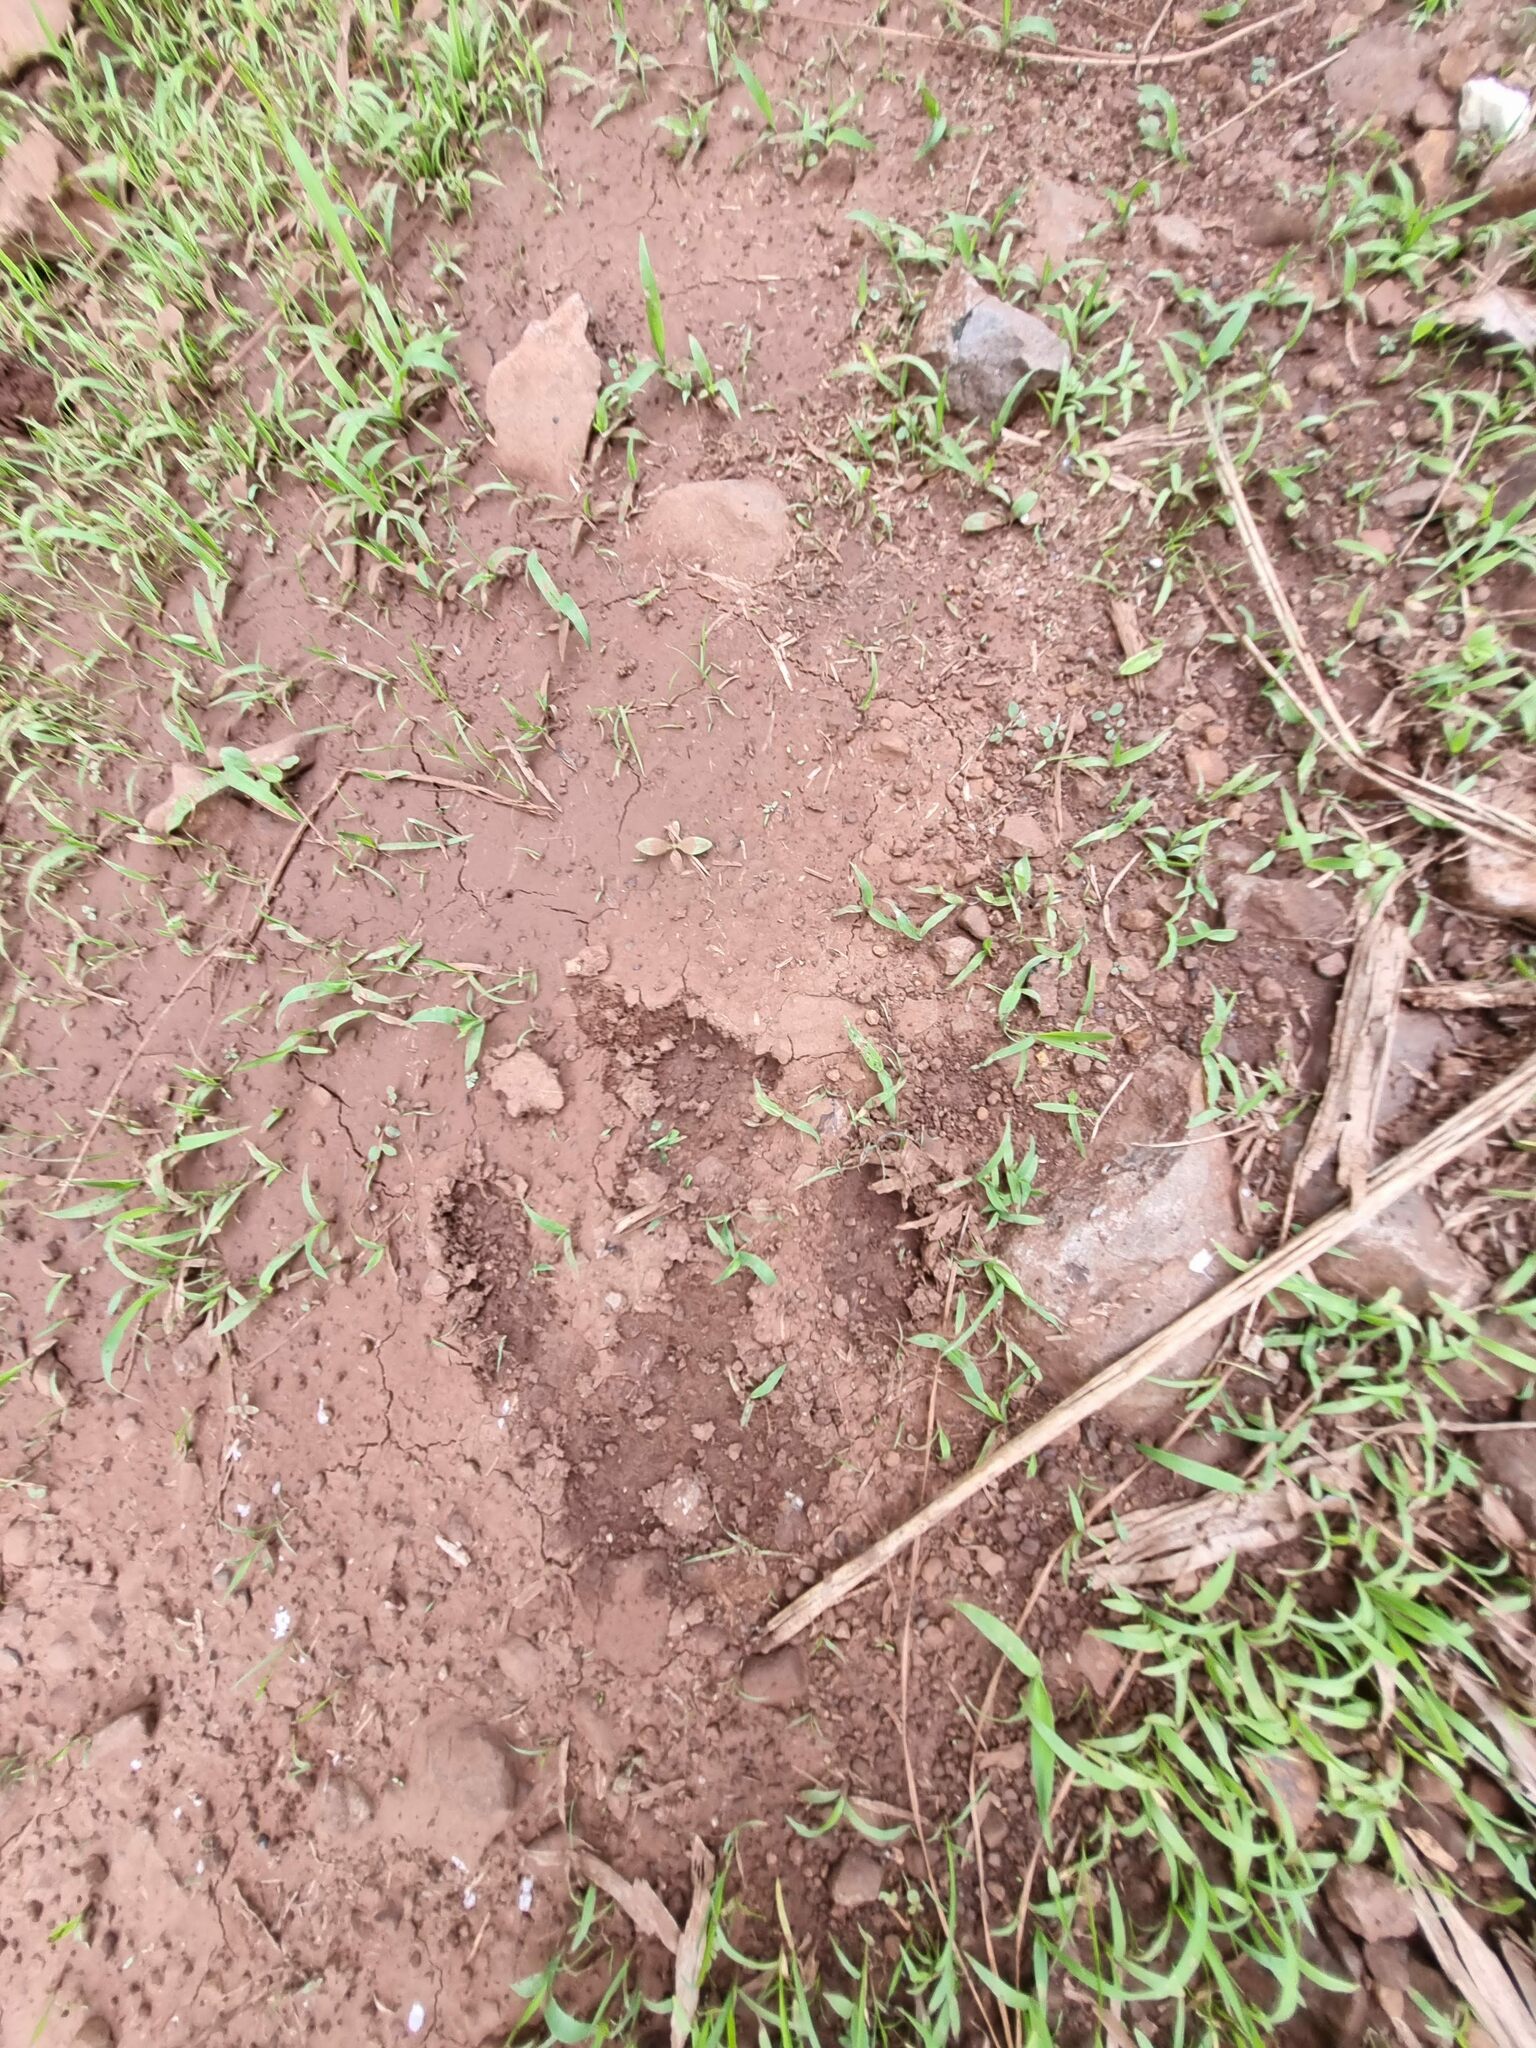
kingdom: Animalia
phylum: Chordata
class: Mammalia
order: Perissodactyla
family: Tapiridae
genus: Tapirus
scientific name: Tapirus terrestris
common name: Brazilian tapir
